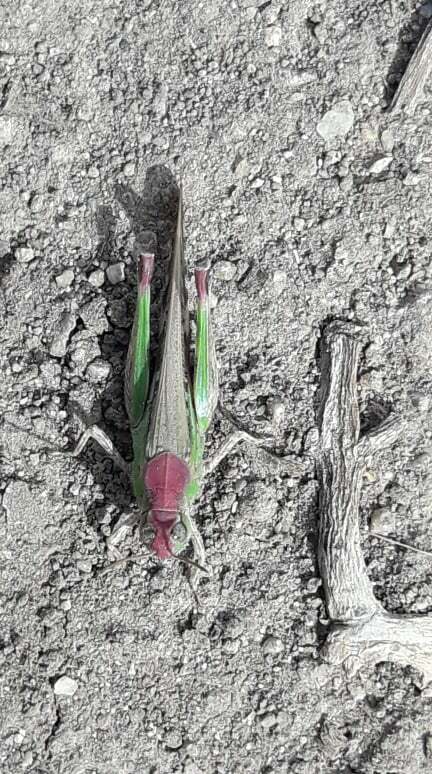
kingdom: Animalia
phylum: Arthropoda
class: Insecta
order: Orthoptera
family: Acrididae
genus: Aiolopus
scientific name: Aiolopus thalassinus
